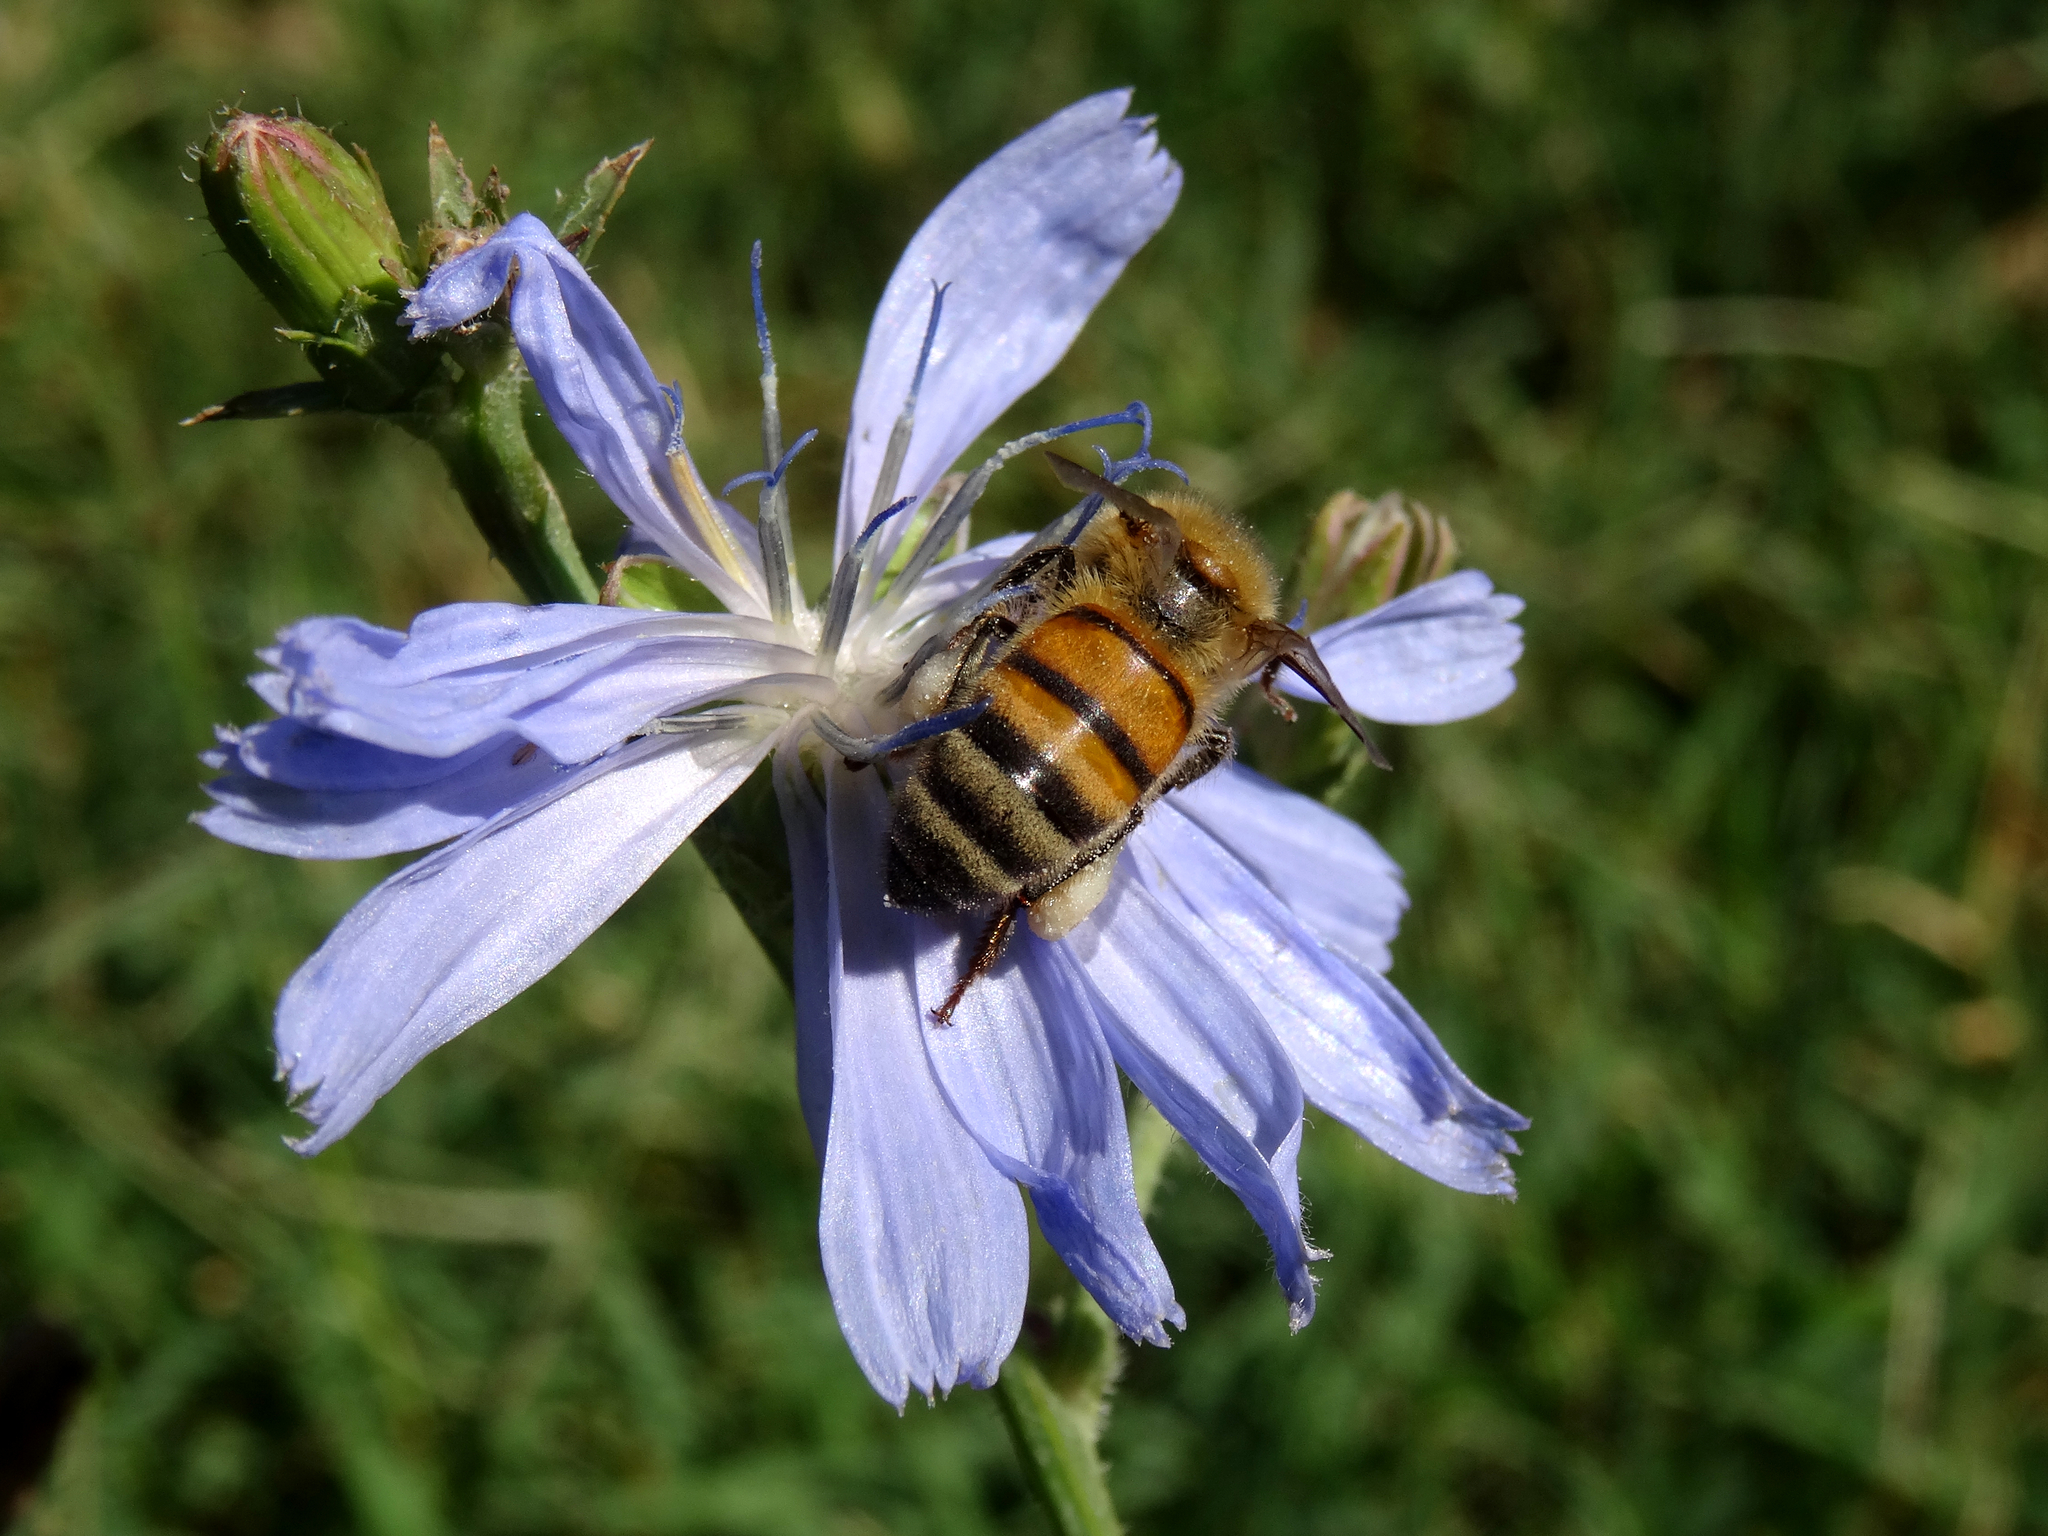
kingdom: Animalia
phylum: Arthropoda
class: Insecta
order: Hymenoptera
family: Apidae
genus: Apis
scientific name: Apis mellifera
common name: Honey bee
